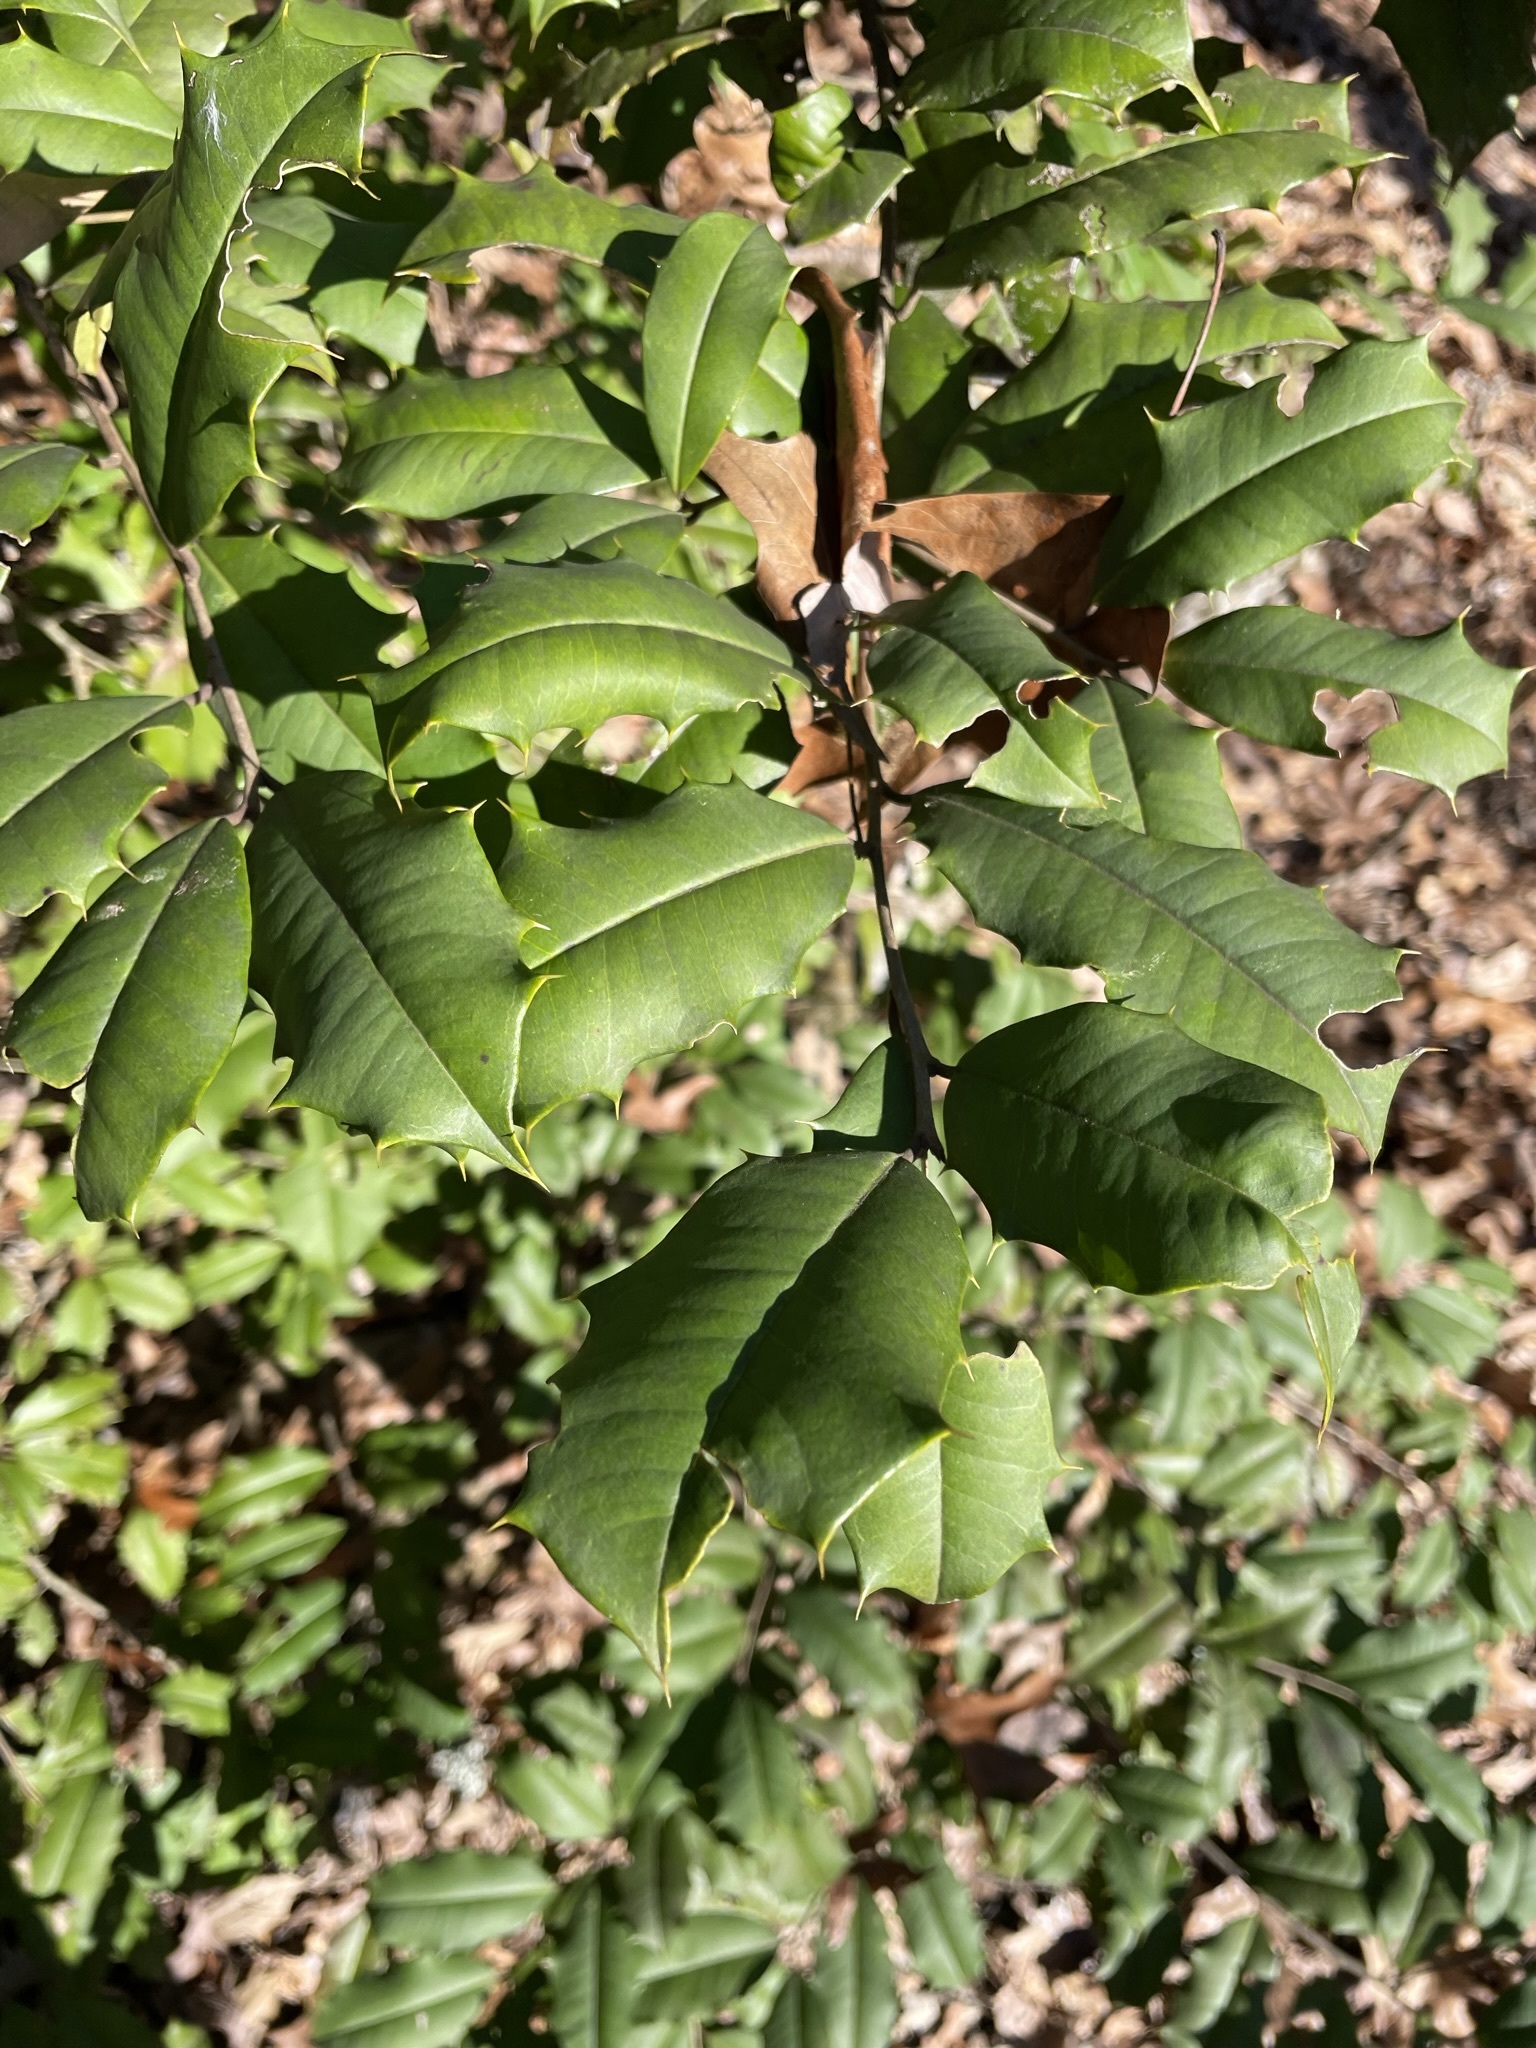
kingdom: Plantae
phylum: Tracheophyta
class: Magnoliopsida
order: Aquifoliales
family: Aquifoliaceae
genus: Ilex
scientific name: Ilex opaca
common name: American holly
